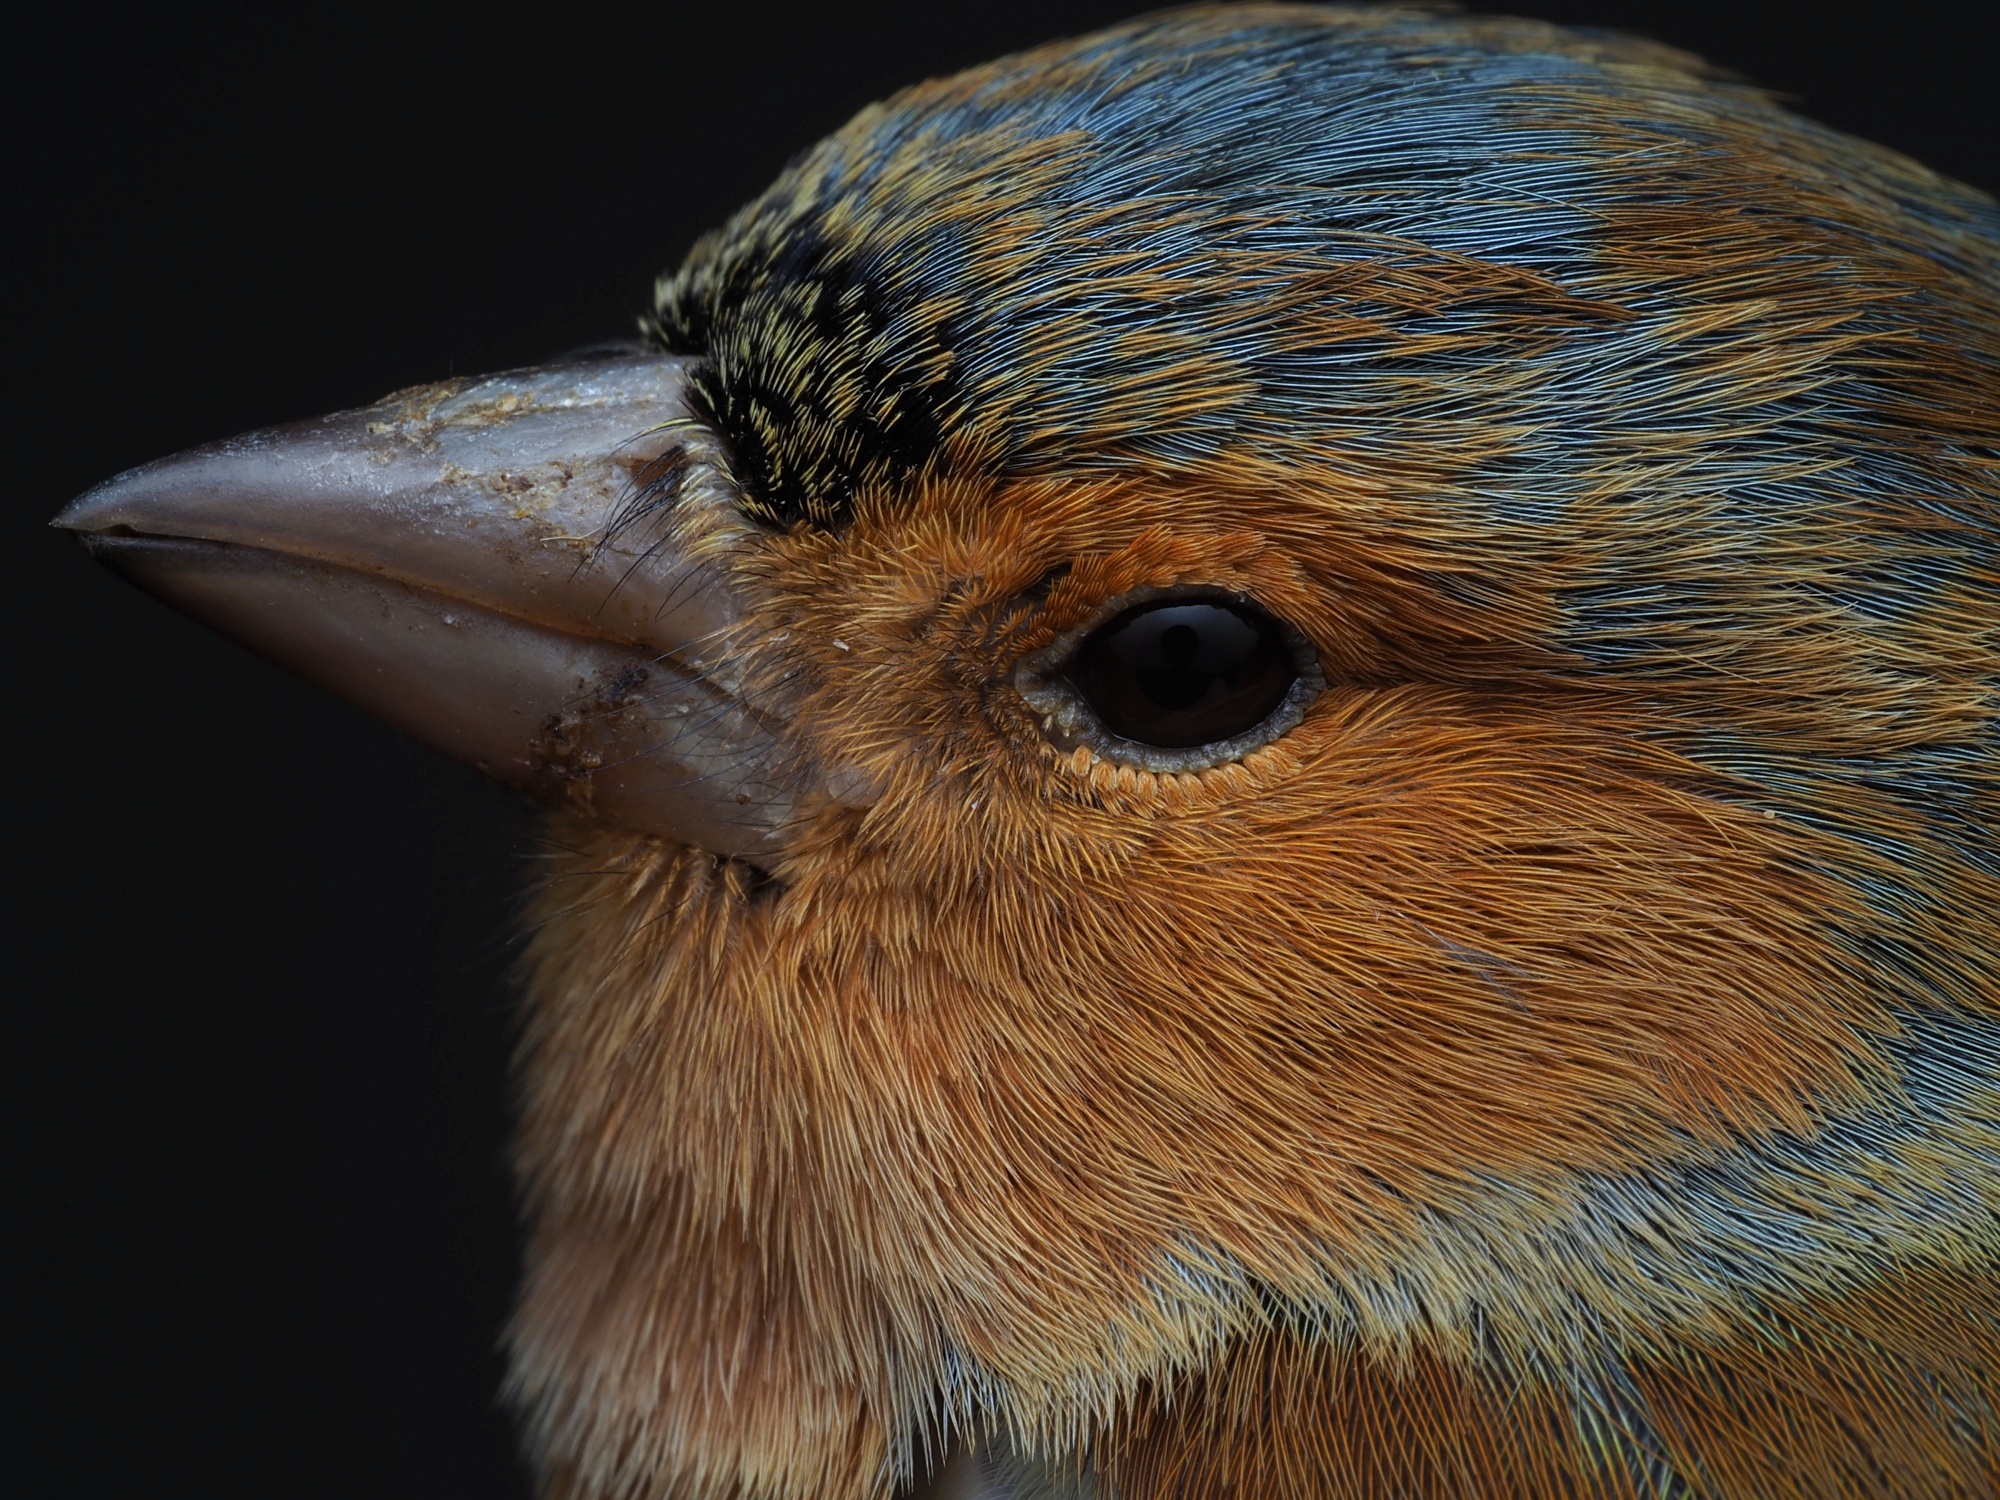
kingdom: Animalia
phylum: Chordata
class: Aves
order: Passeriformes
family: Fringillidae
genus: Fringilla
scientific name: Fringilla coelebs
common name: Common chaffinch
